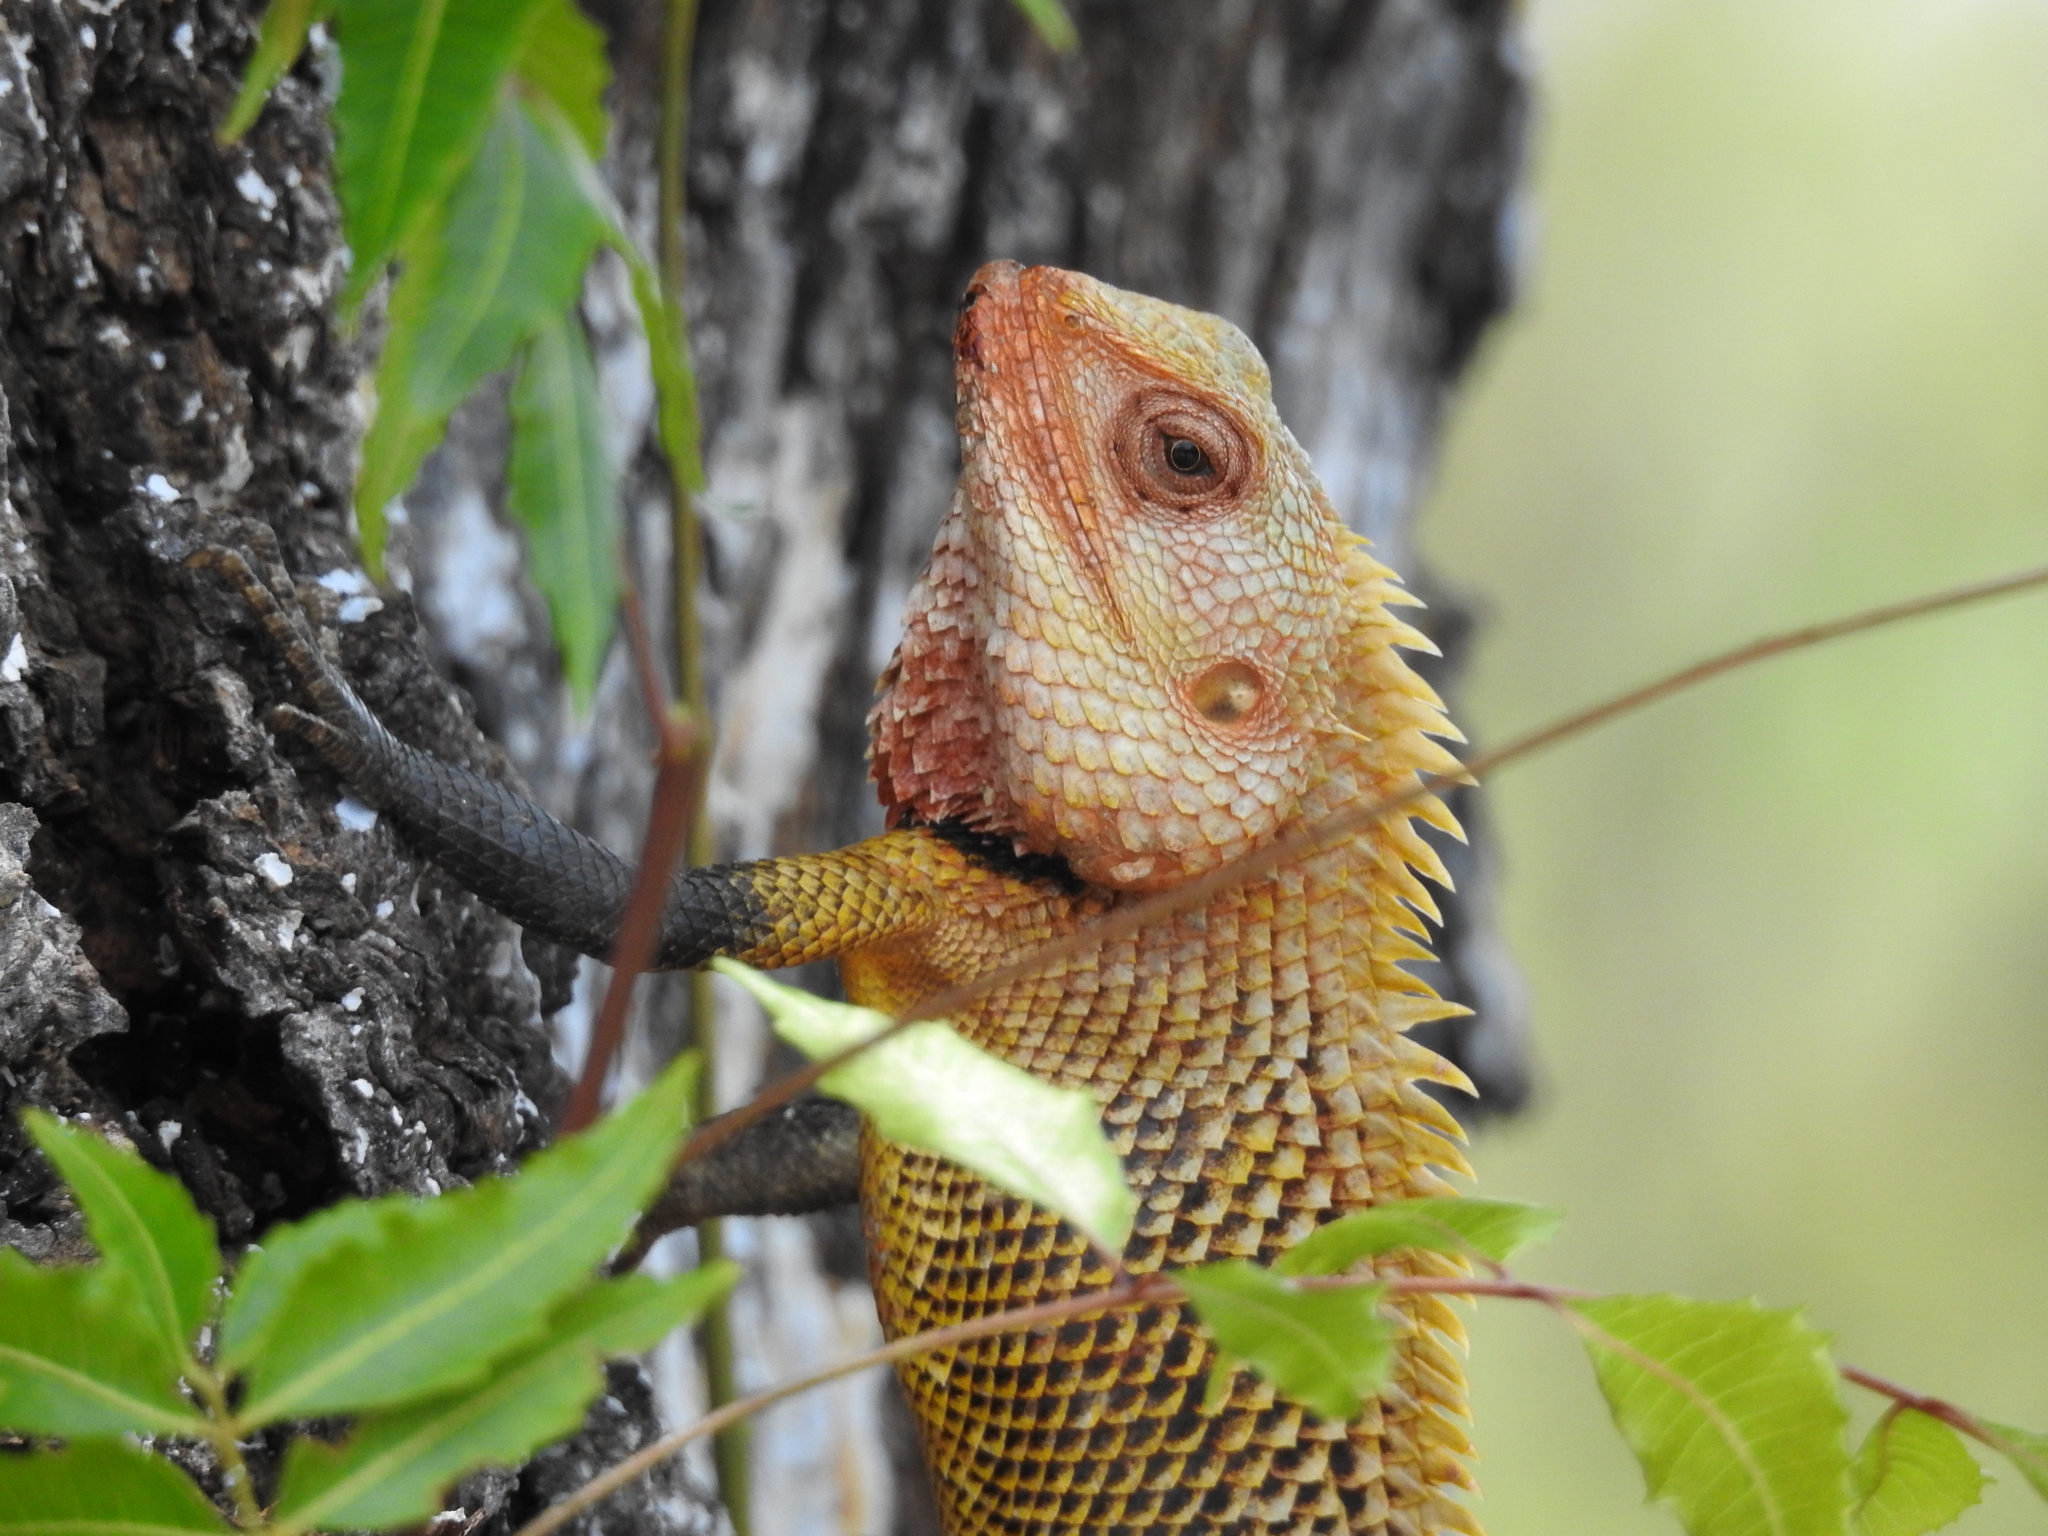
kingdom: Animalia
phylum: Chordata
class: Squamata
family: Agamidae
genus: Calotes
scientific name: Calotes versicolor
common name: Oriental garden lizard
